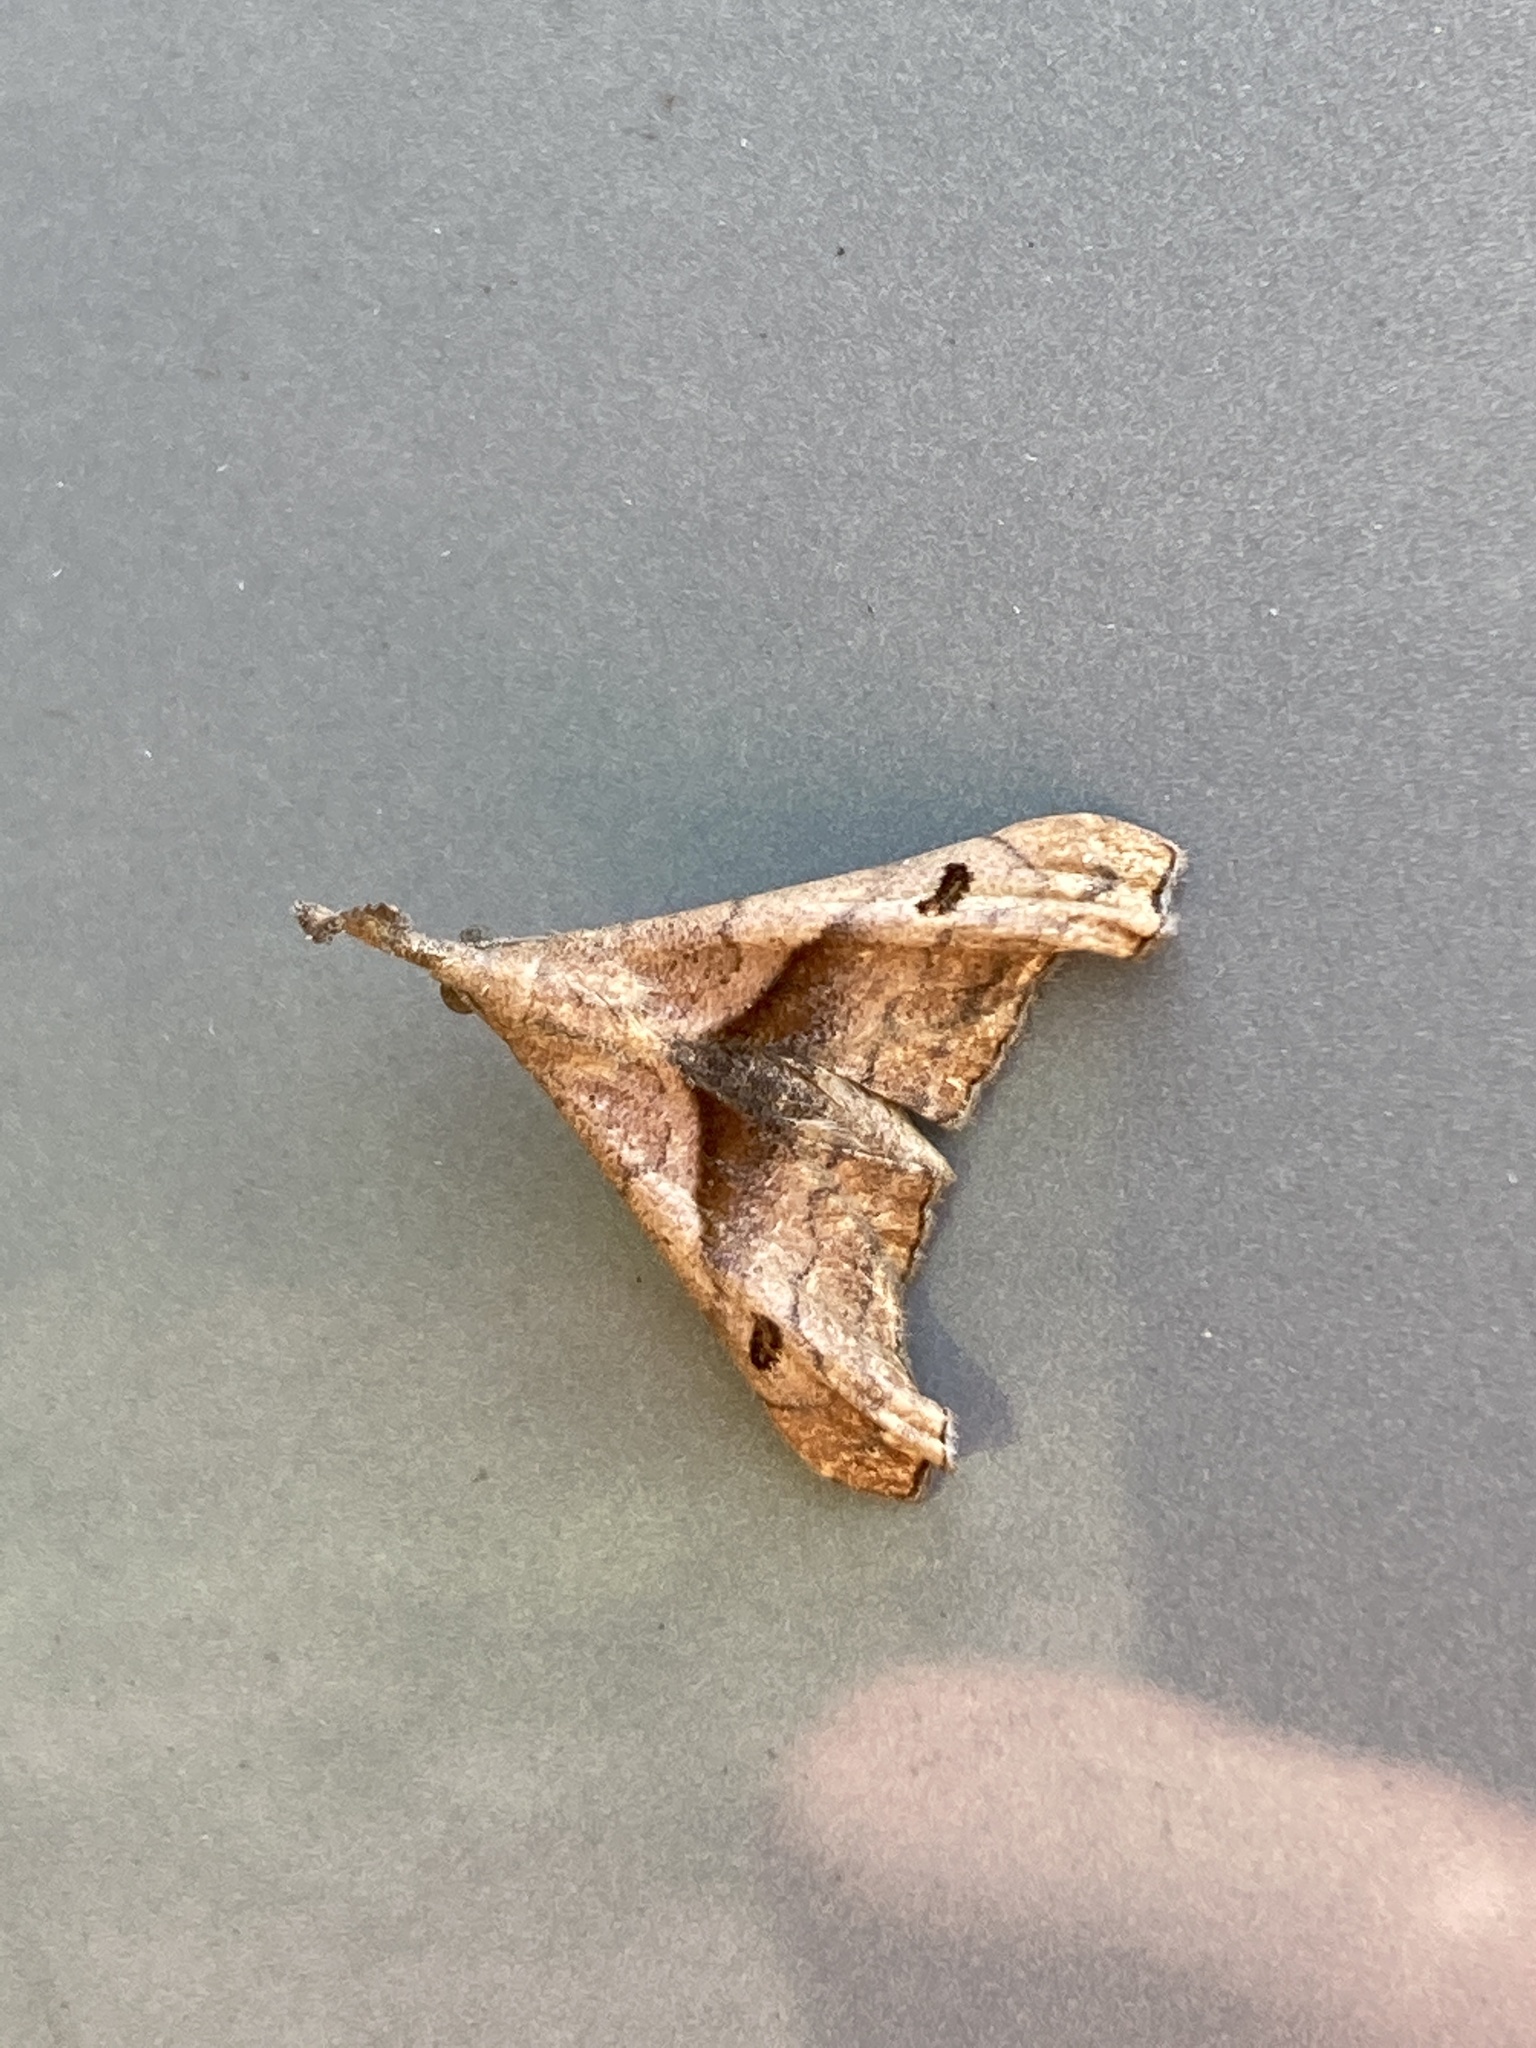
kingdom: Animalia
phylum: Arthropoda
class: Insecta
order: Lepidoptera
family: Erebidae
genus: Palthis
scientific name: Palthis angulalis
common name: Dark-spotted palthis moth
